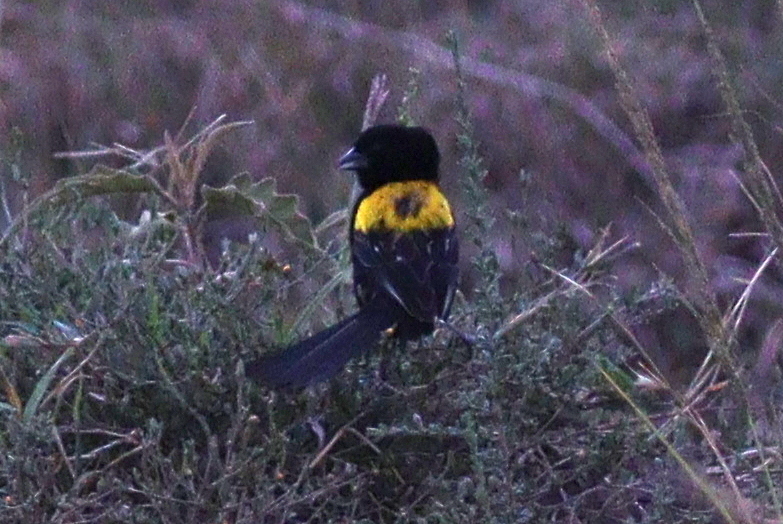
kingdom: Animalia
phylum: Chordata
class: Aves
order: Passeriformes
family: Ploceidae
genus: Euplectes
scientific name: Euplectes macroura
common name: Yellow-mantled widowbird
